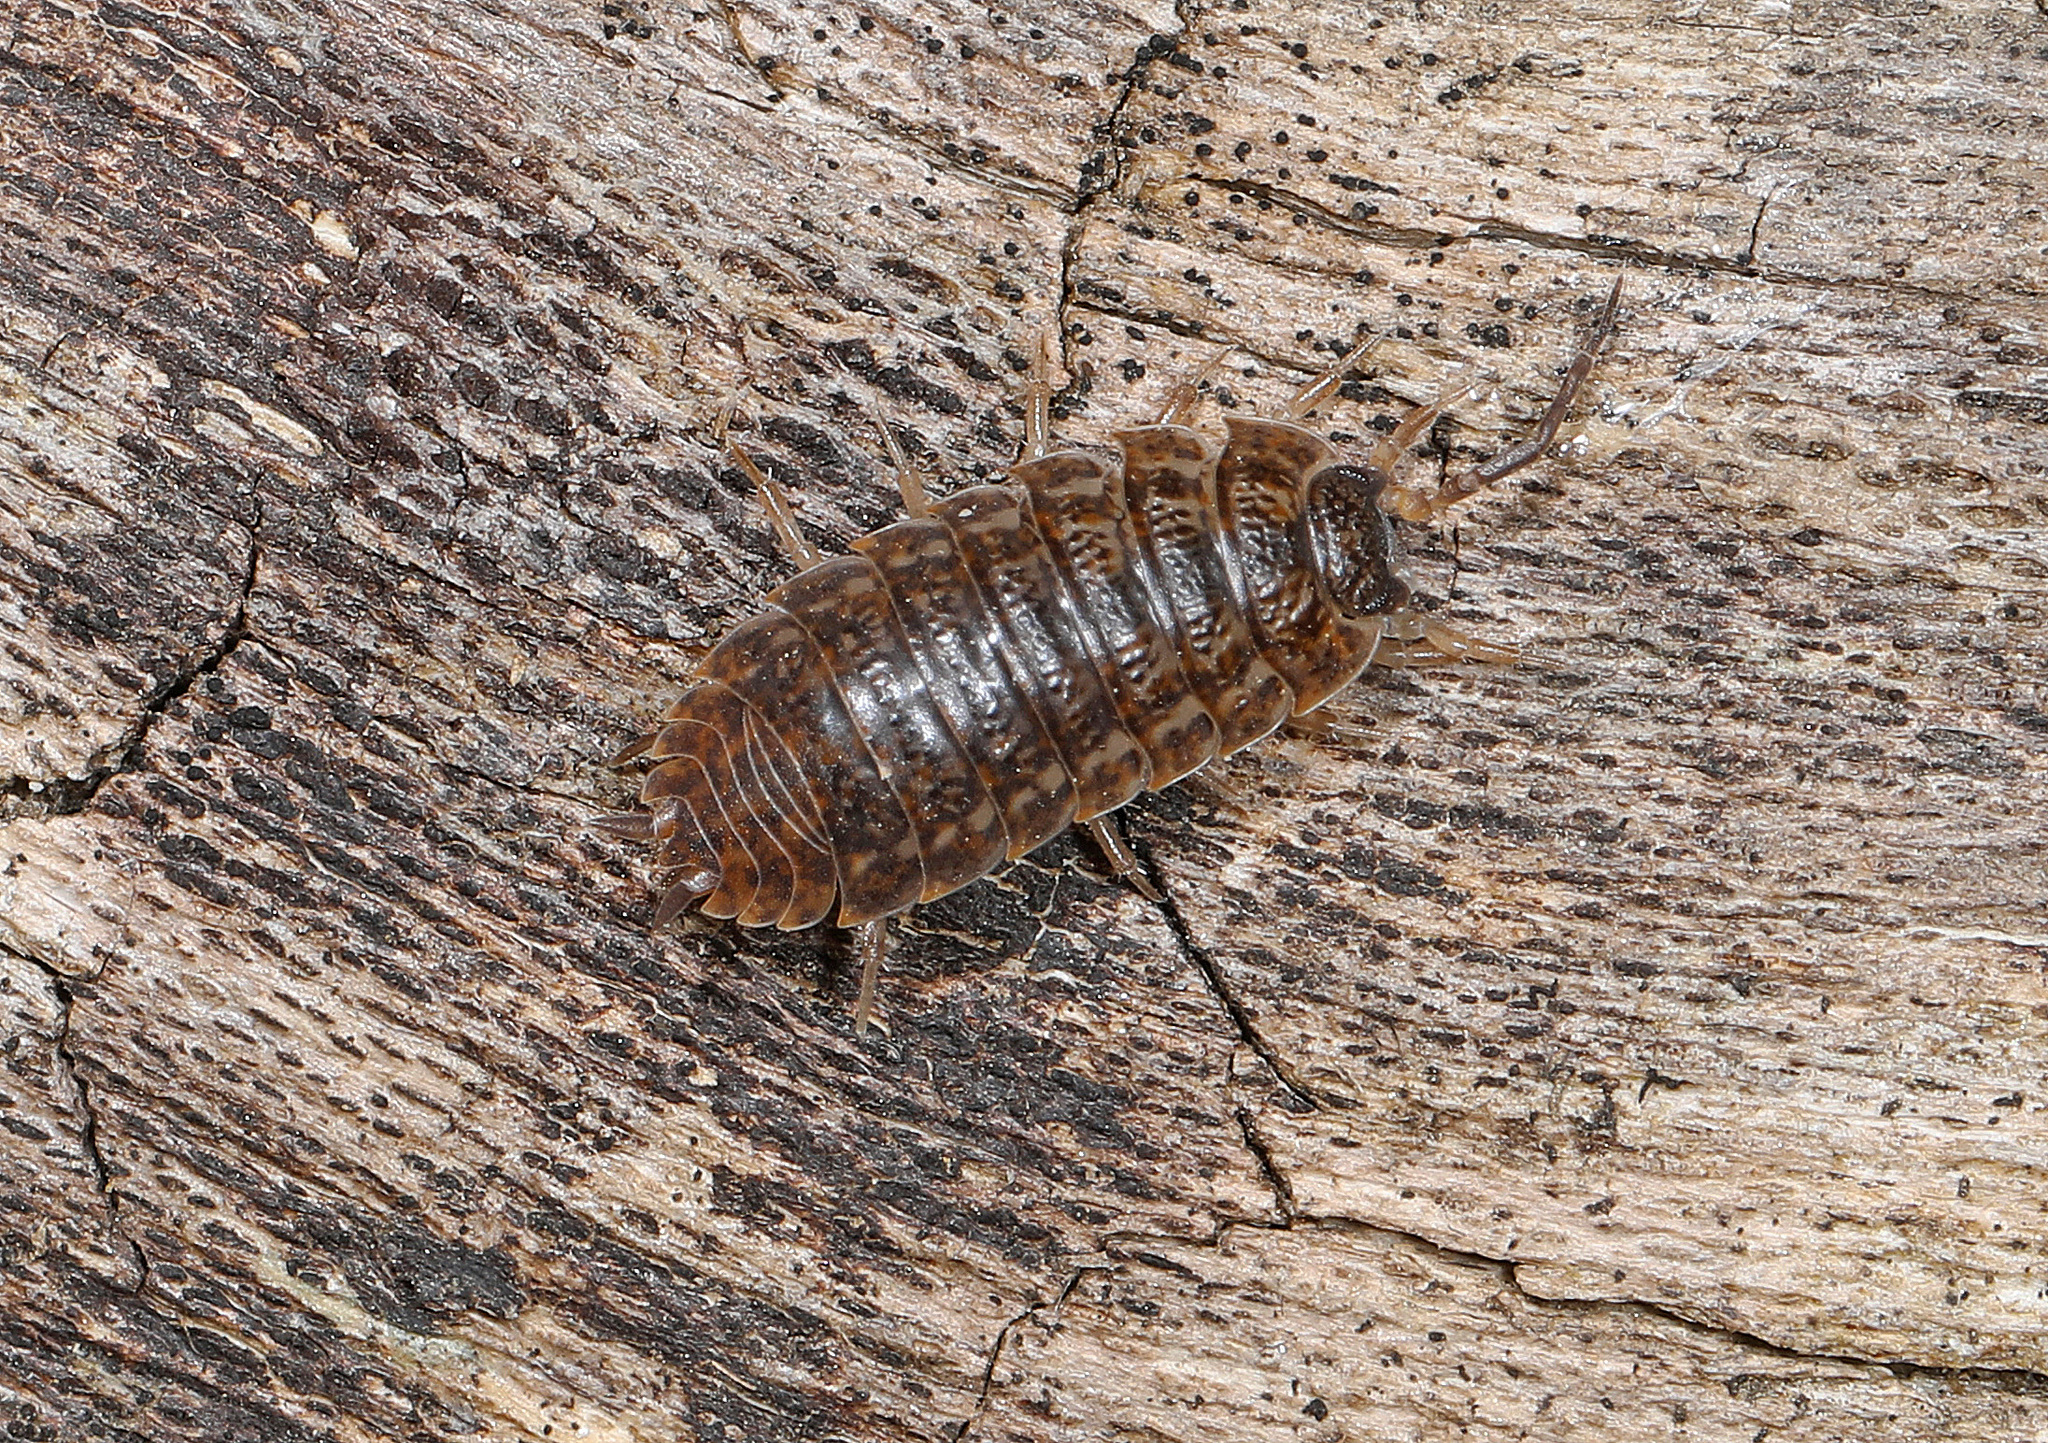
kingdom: Animalia
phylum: Arthropoda
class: Malacostraca
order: Isopoda
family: Trachelipodidae
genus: Trachelipus
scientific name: Trachelipus rathkii
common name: Isopod
